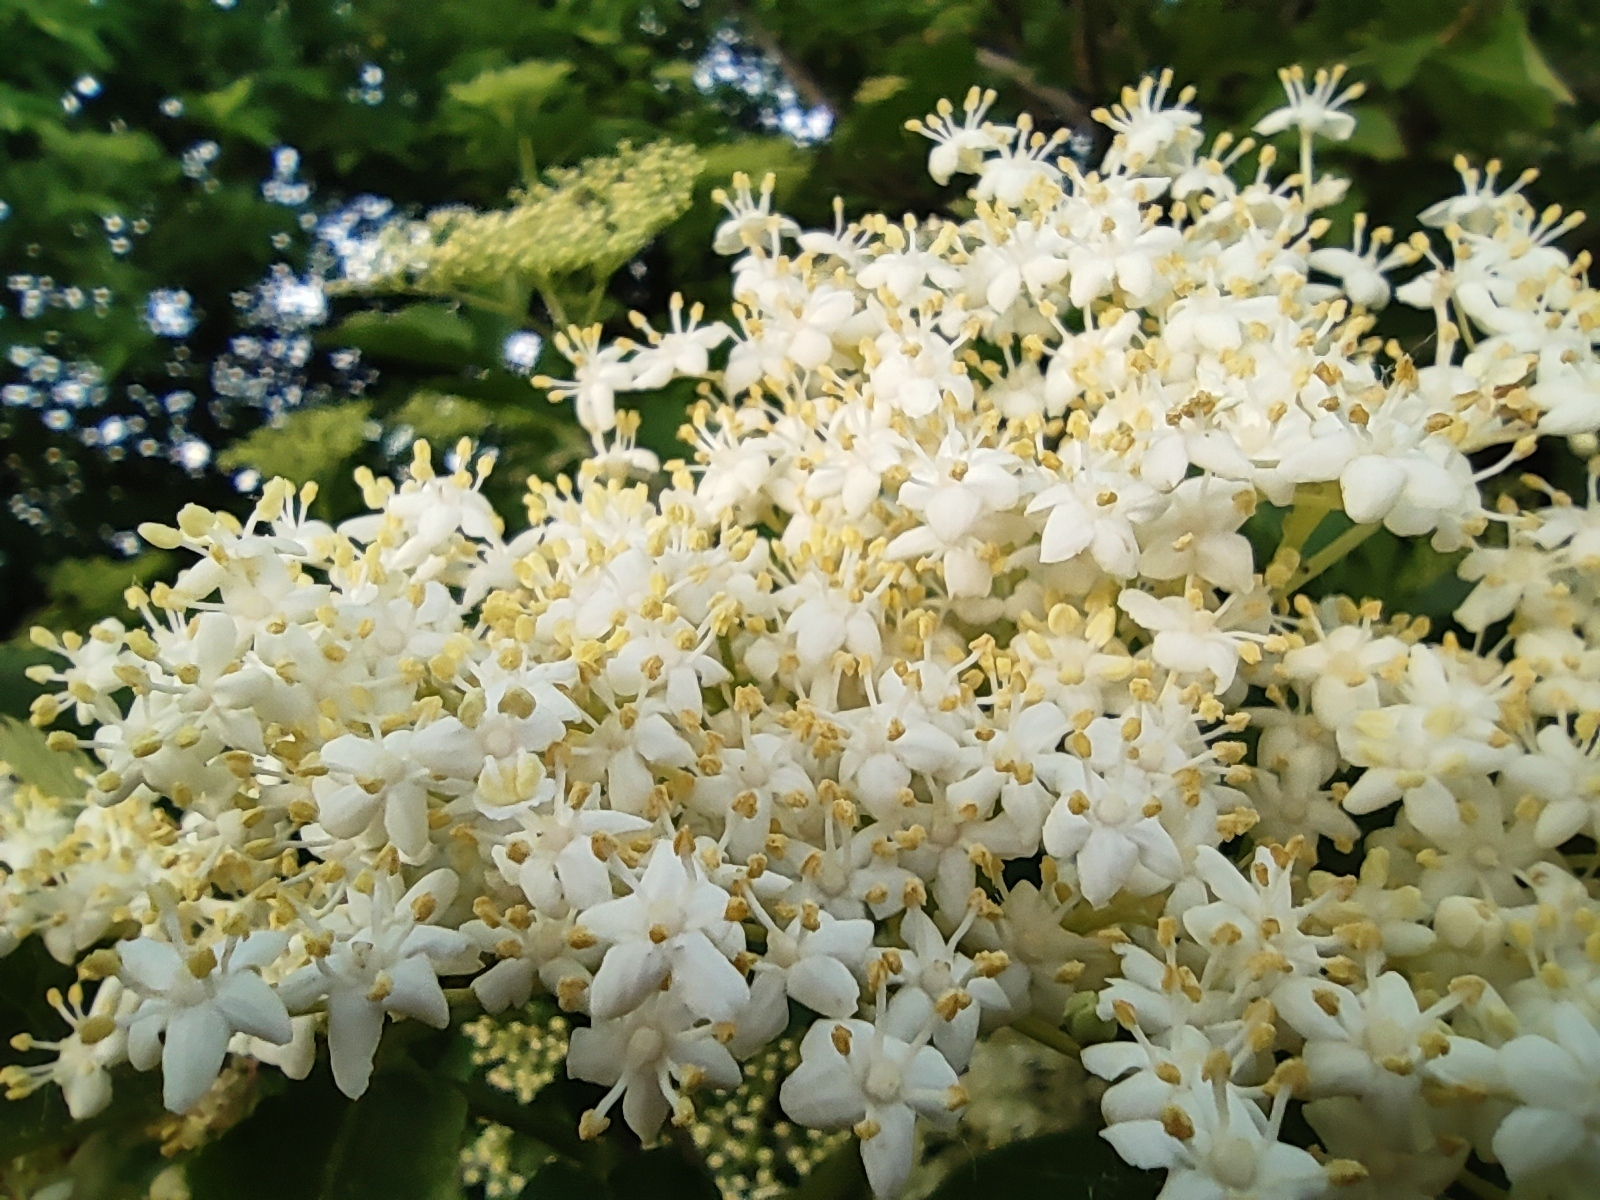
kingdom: Plantae
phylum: Tracheophyta
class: Magnoliopsida
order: Dipsacales
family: Viburnaceae
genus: Sambucus
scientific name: Sambucus nigra
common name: Elder
